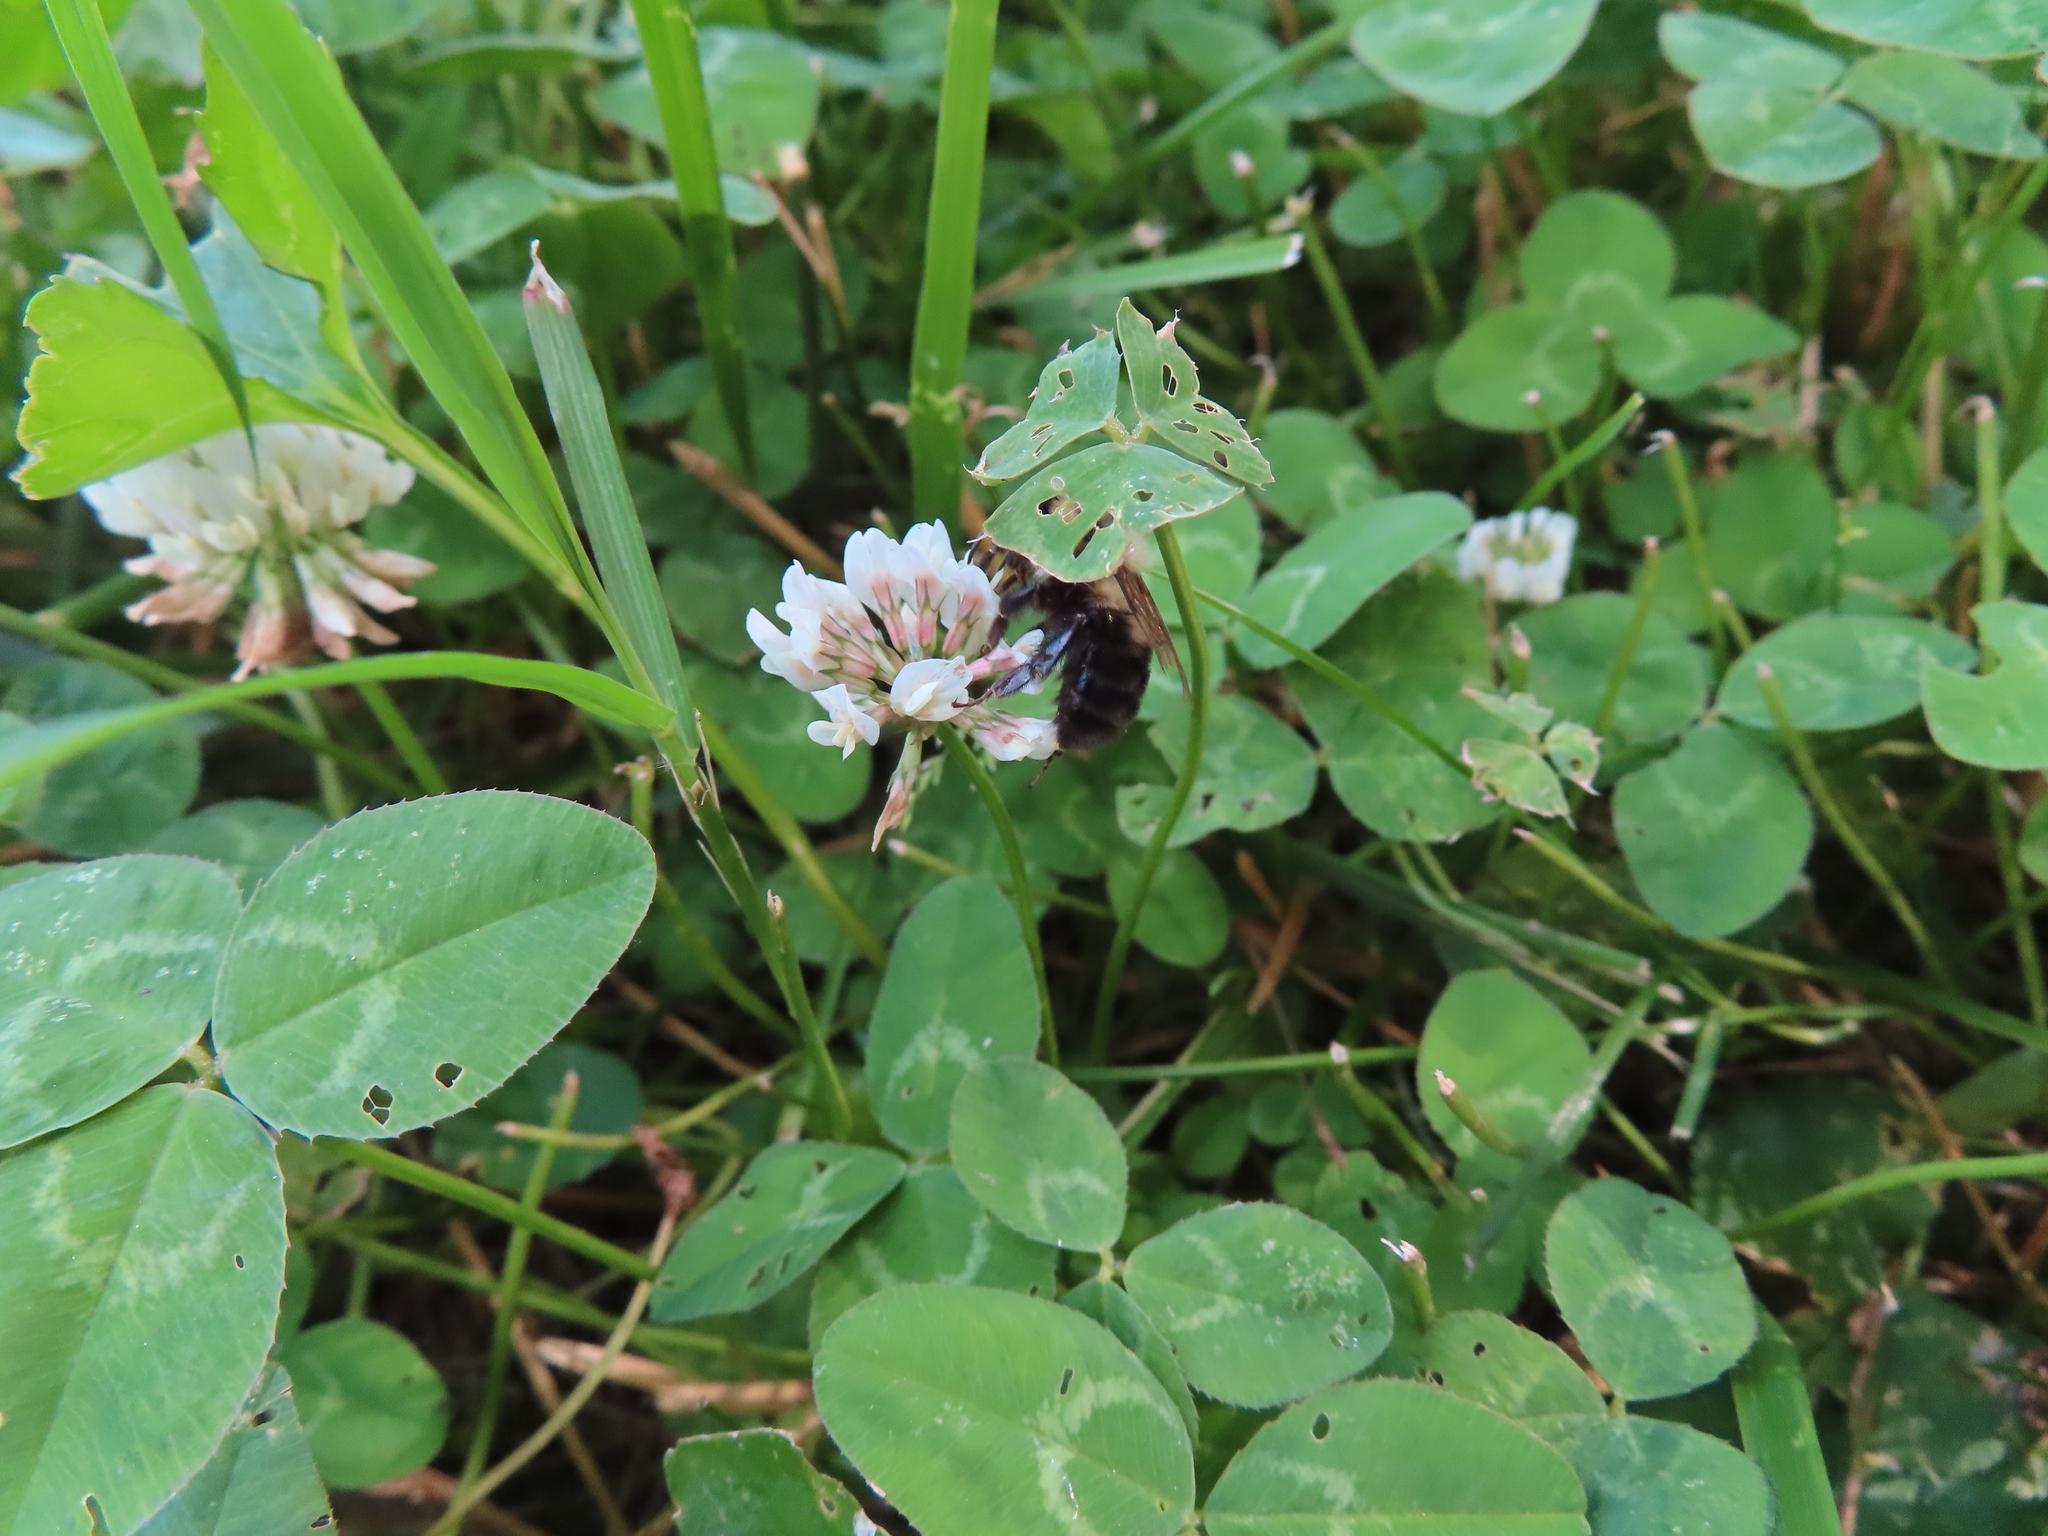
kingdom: Animalia
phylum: Arthropoda
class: Insecta
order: Hymenoptera
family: Apidae
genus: Bombus
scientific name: Bombus bimaculatus
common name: Two-spotted bumble bee
